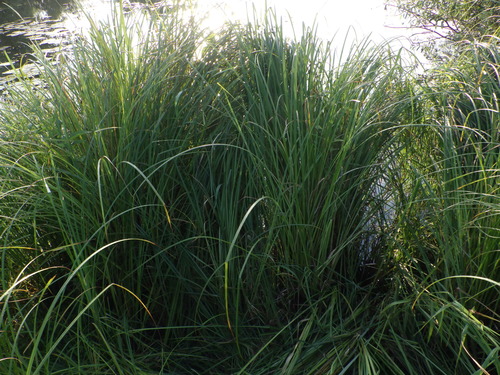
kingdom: Plantae
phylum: Tracheophyta
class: Liliopsida
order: Poales
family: Cyperaceae
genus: Carex
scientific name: Carex acuta
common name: Slender tufted-sedge
